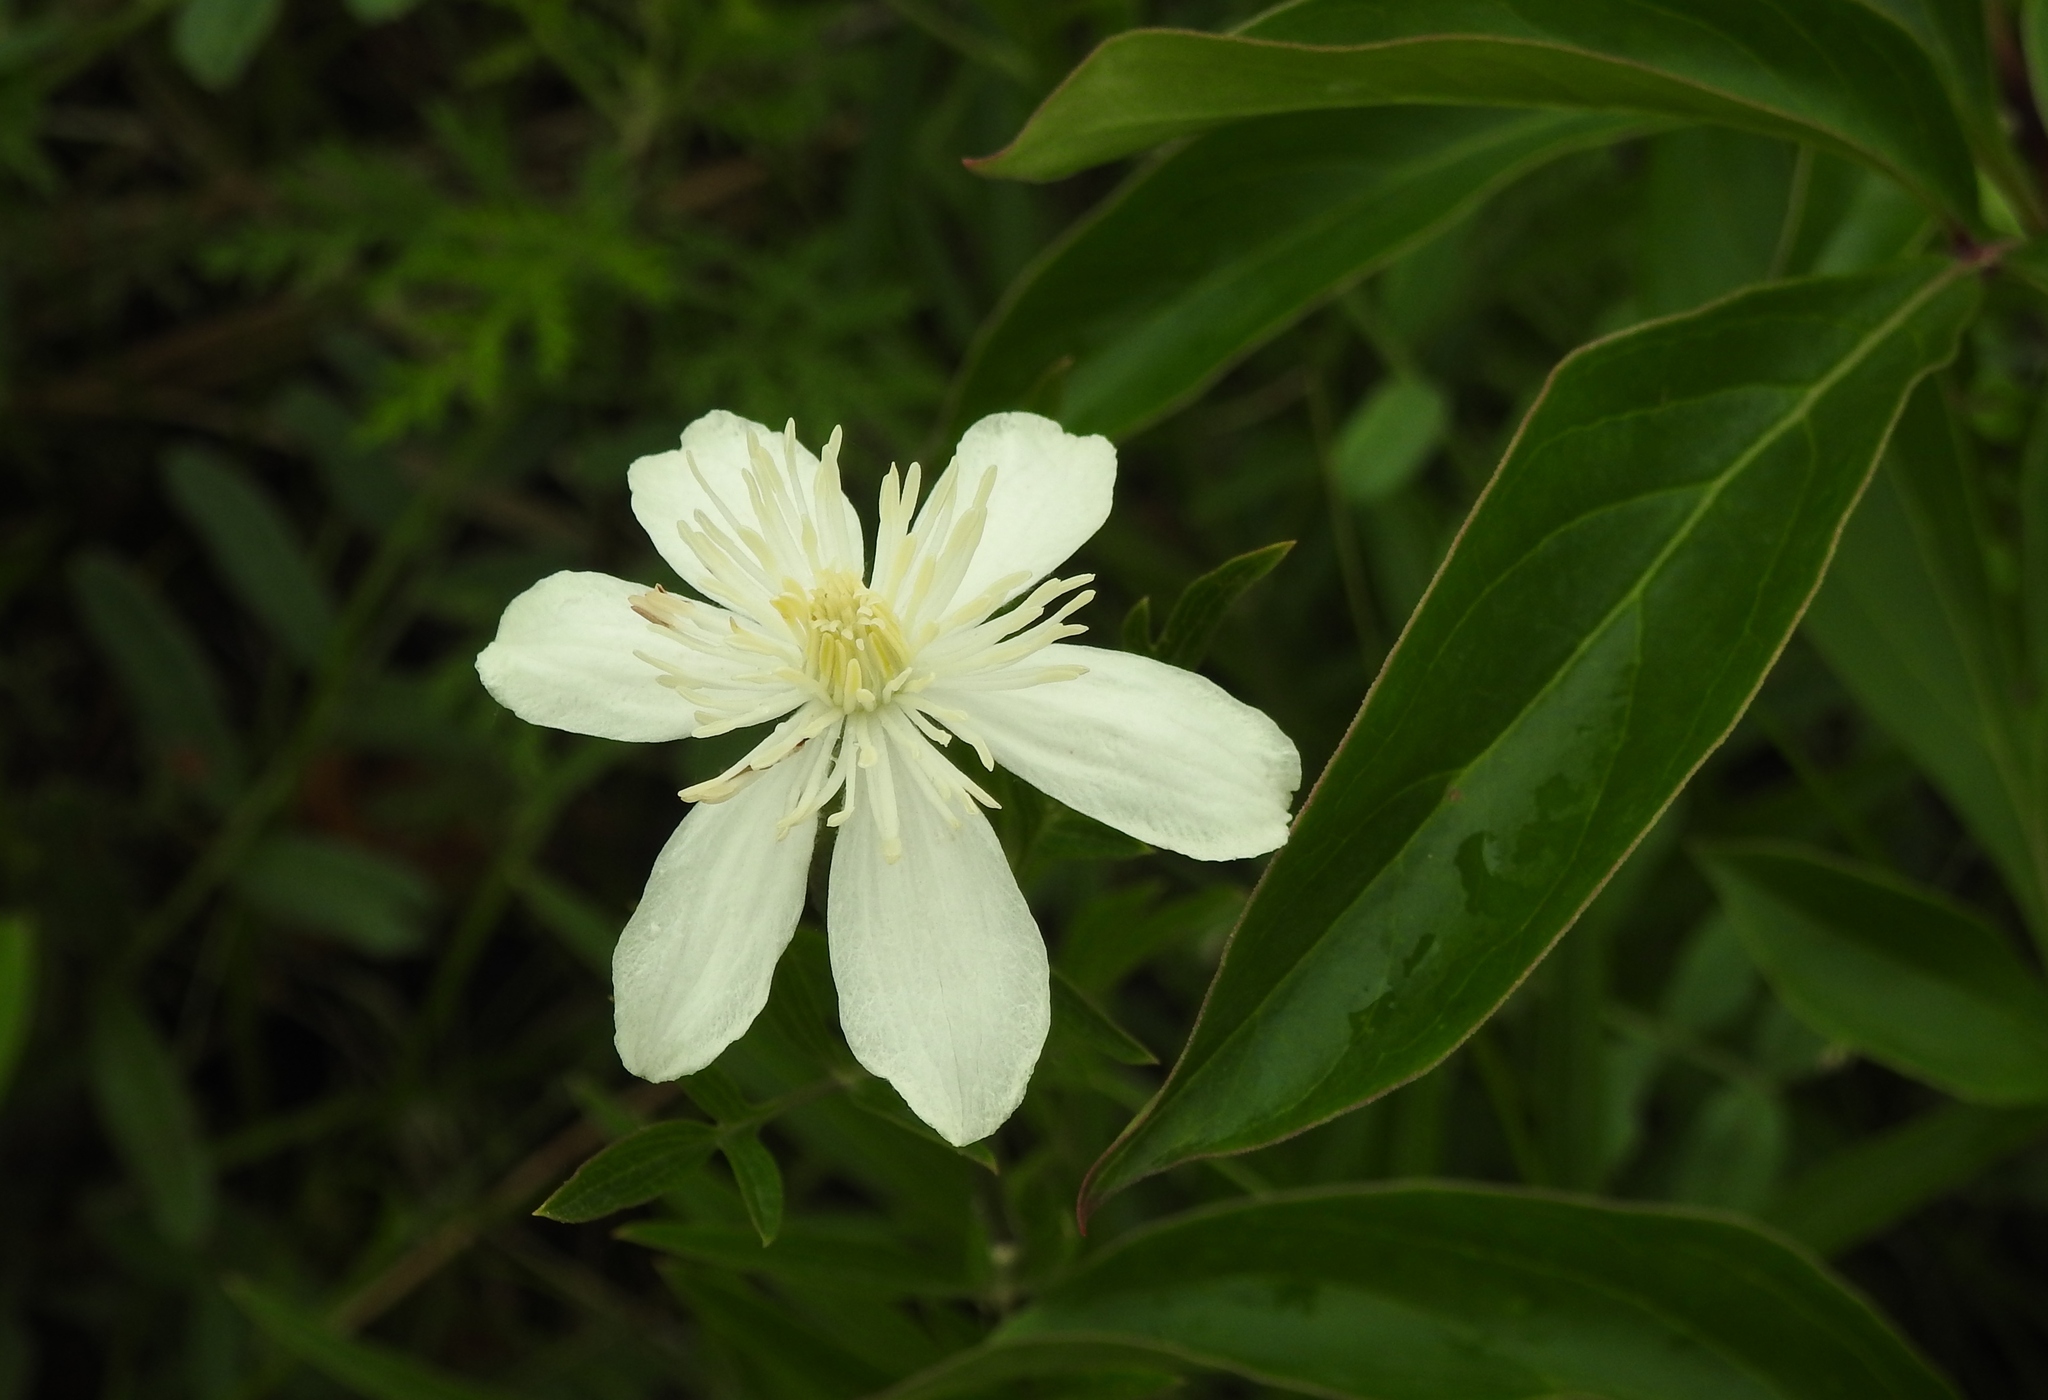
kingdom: Plantae
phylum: Tracheophyta
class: Magnoliopsida
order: Ranunculales
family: Ranunculaceae
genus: Clematis
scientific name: Clematis hexapetala
